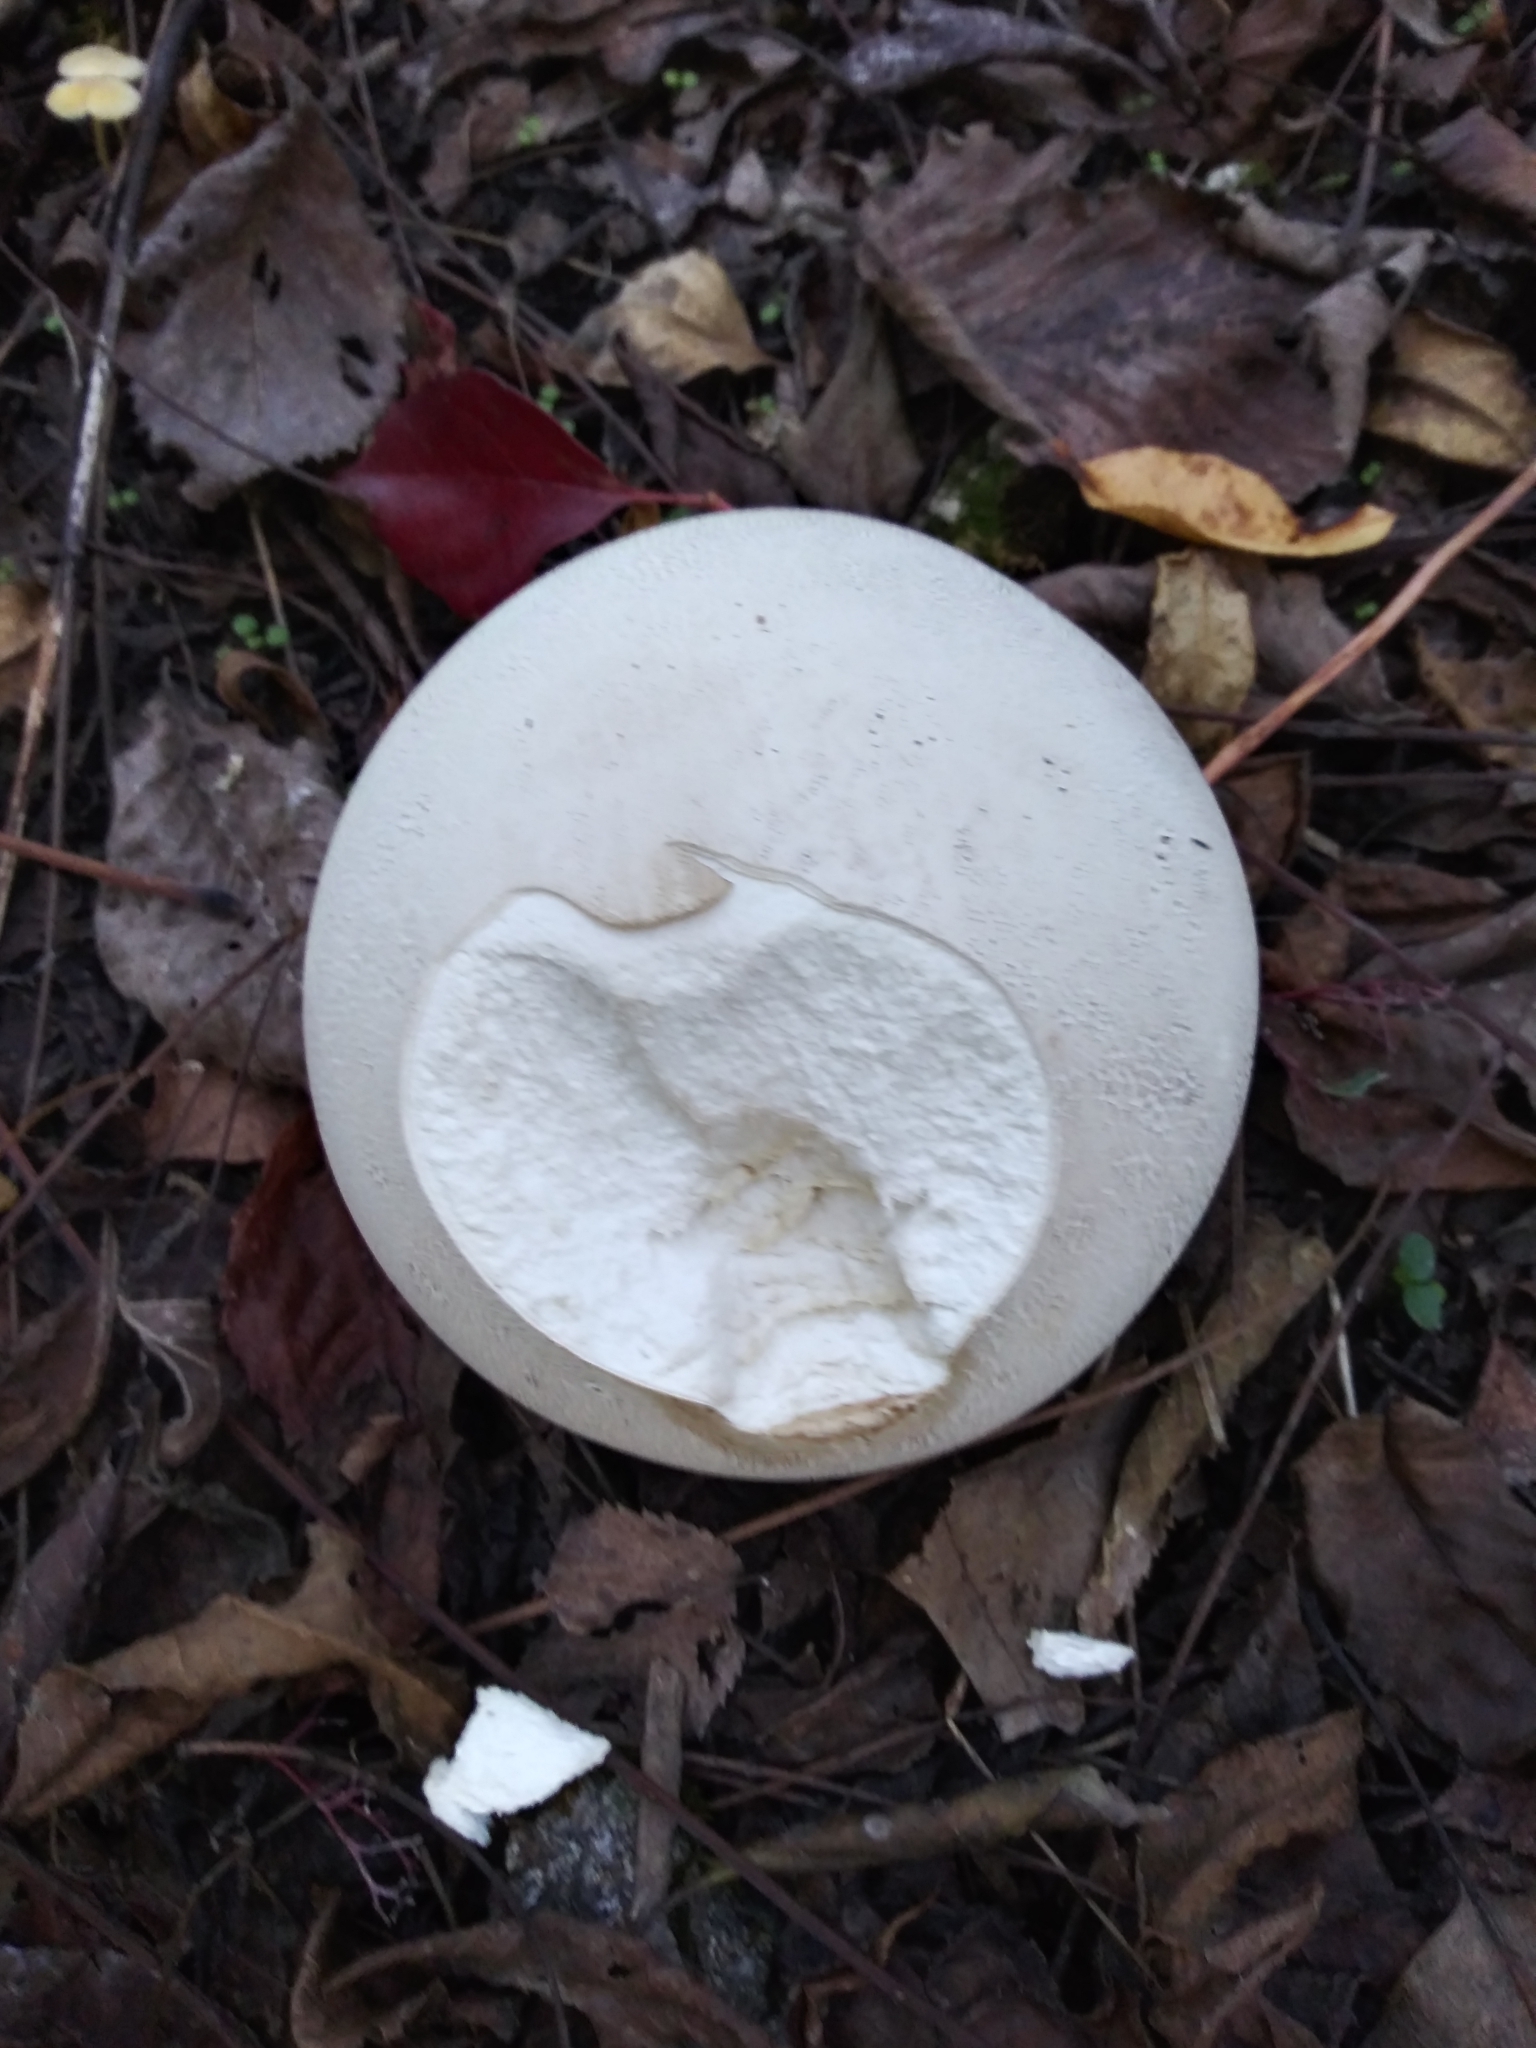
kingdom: Fungi
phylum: Basidiomycota
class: Agaricomycetes
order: Agaricales
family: Lycoperdaceae
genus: Calvatia
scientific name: Calvatia gigantea
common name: Giant puffball
